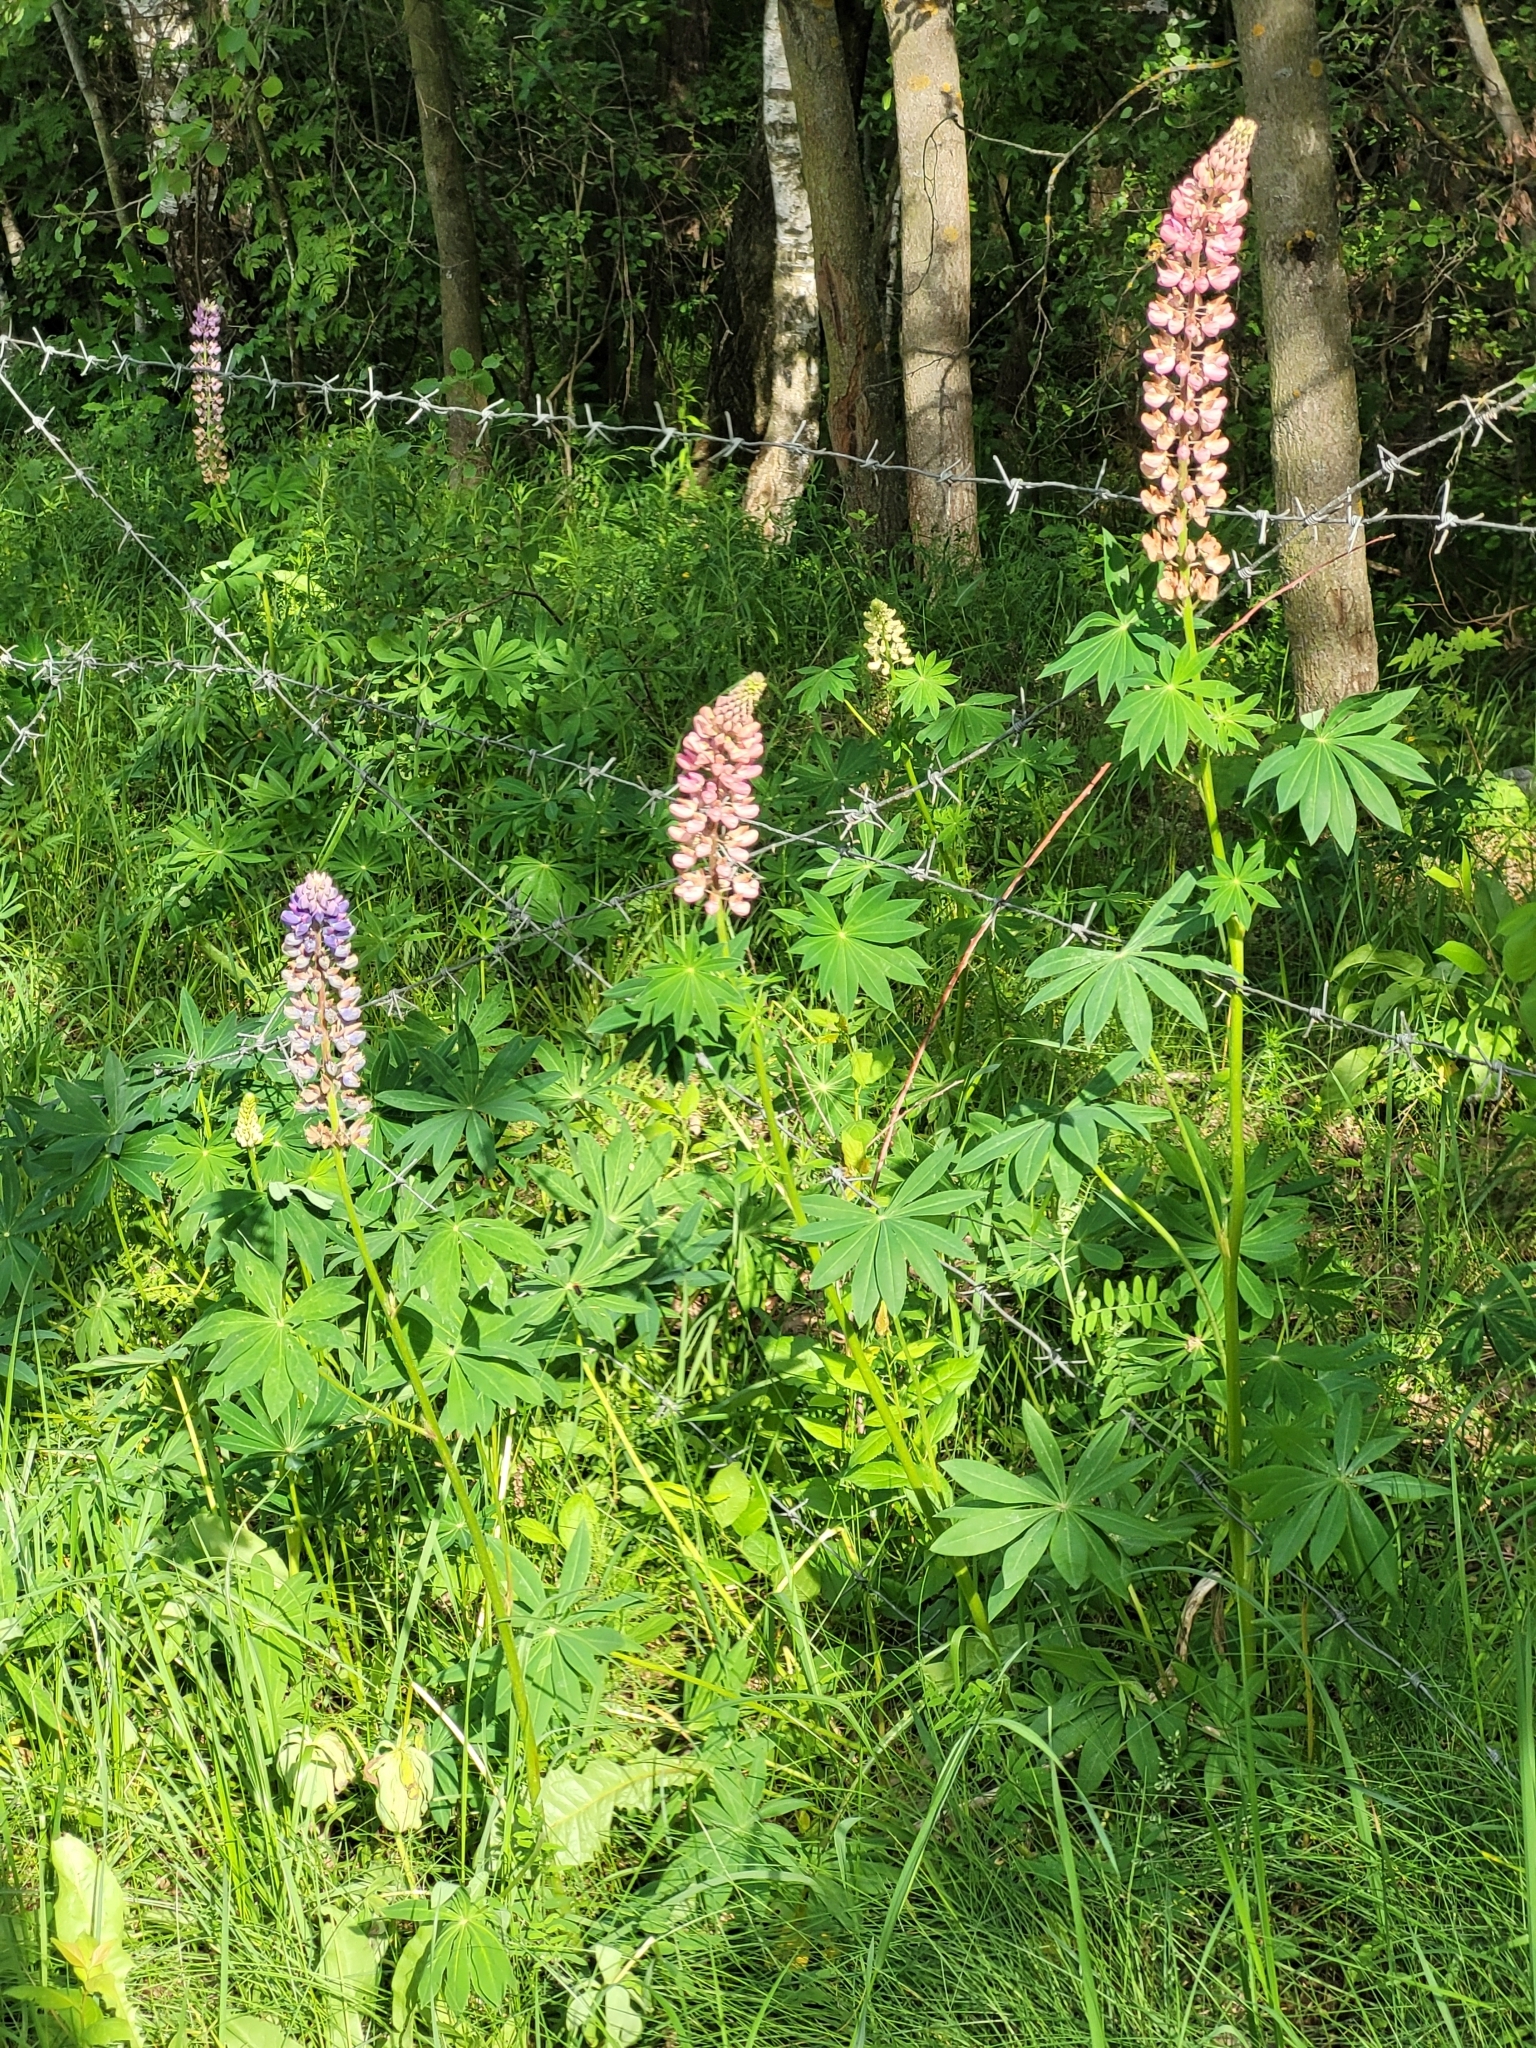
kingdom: Plantae
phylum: Tracheophyta
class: Magnoliopsida
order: Fabales
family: Fabaceae
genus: Lupinus
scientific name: Lupinus polyphyllus
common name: Garden lupin
